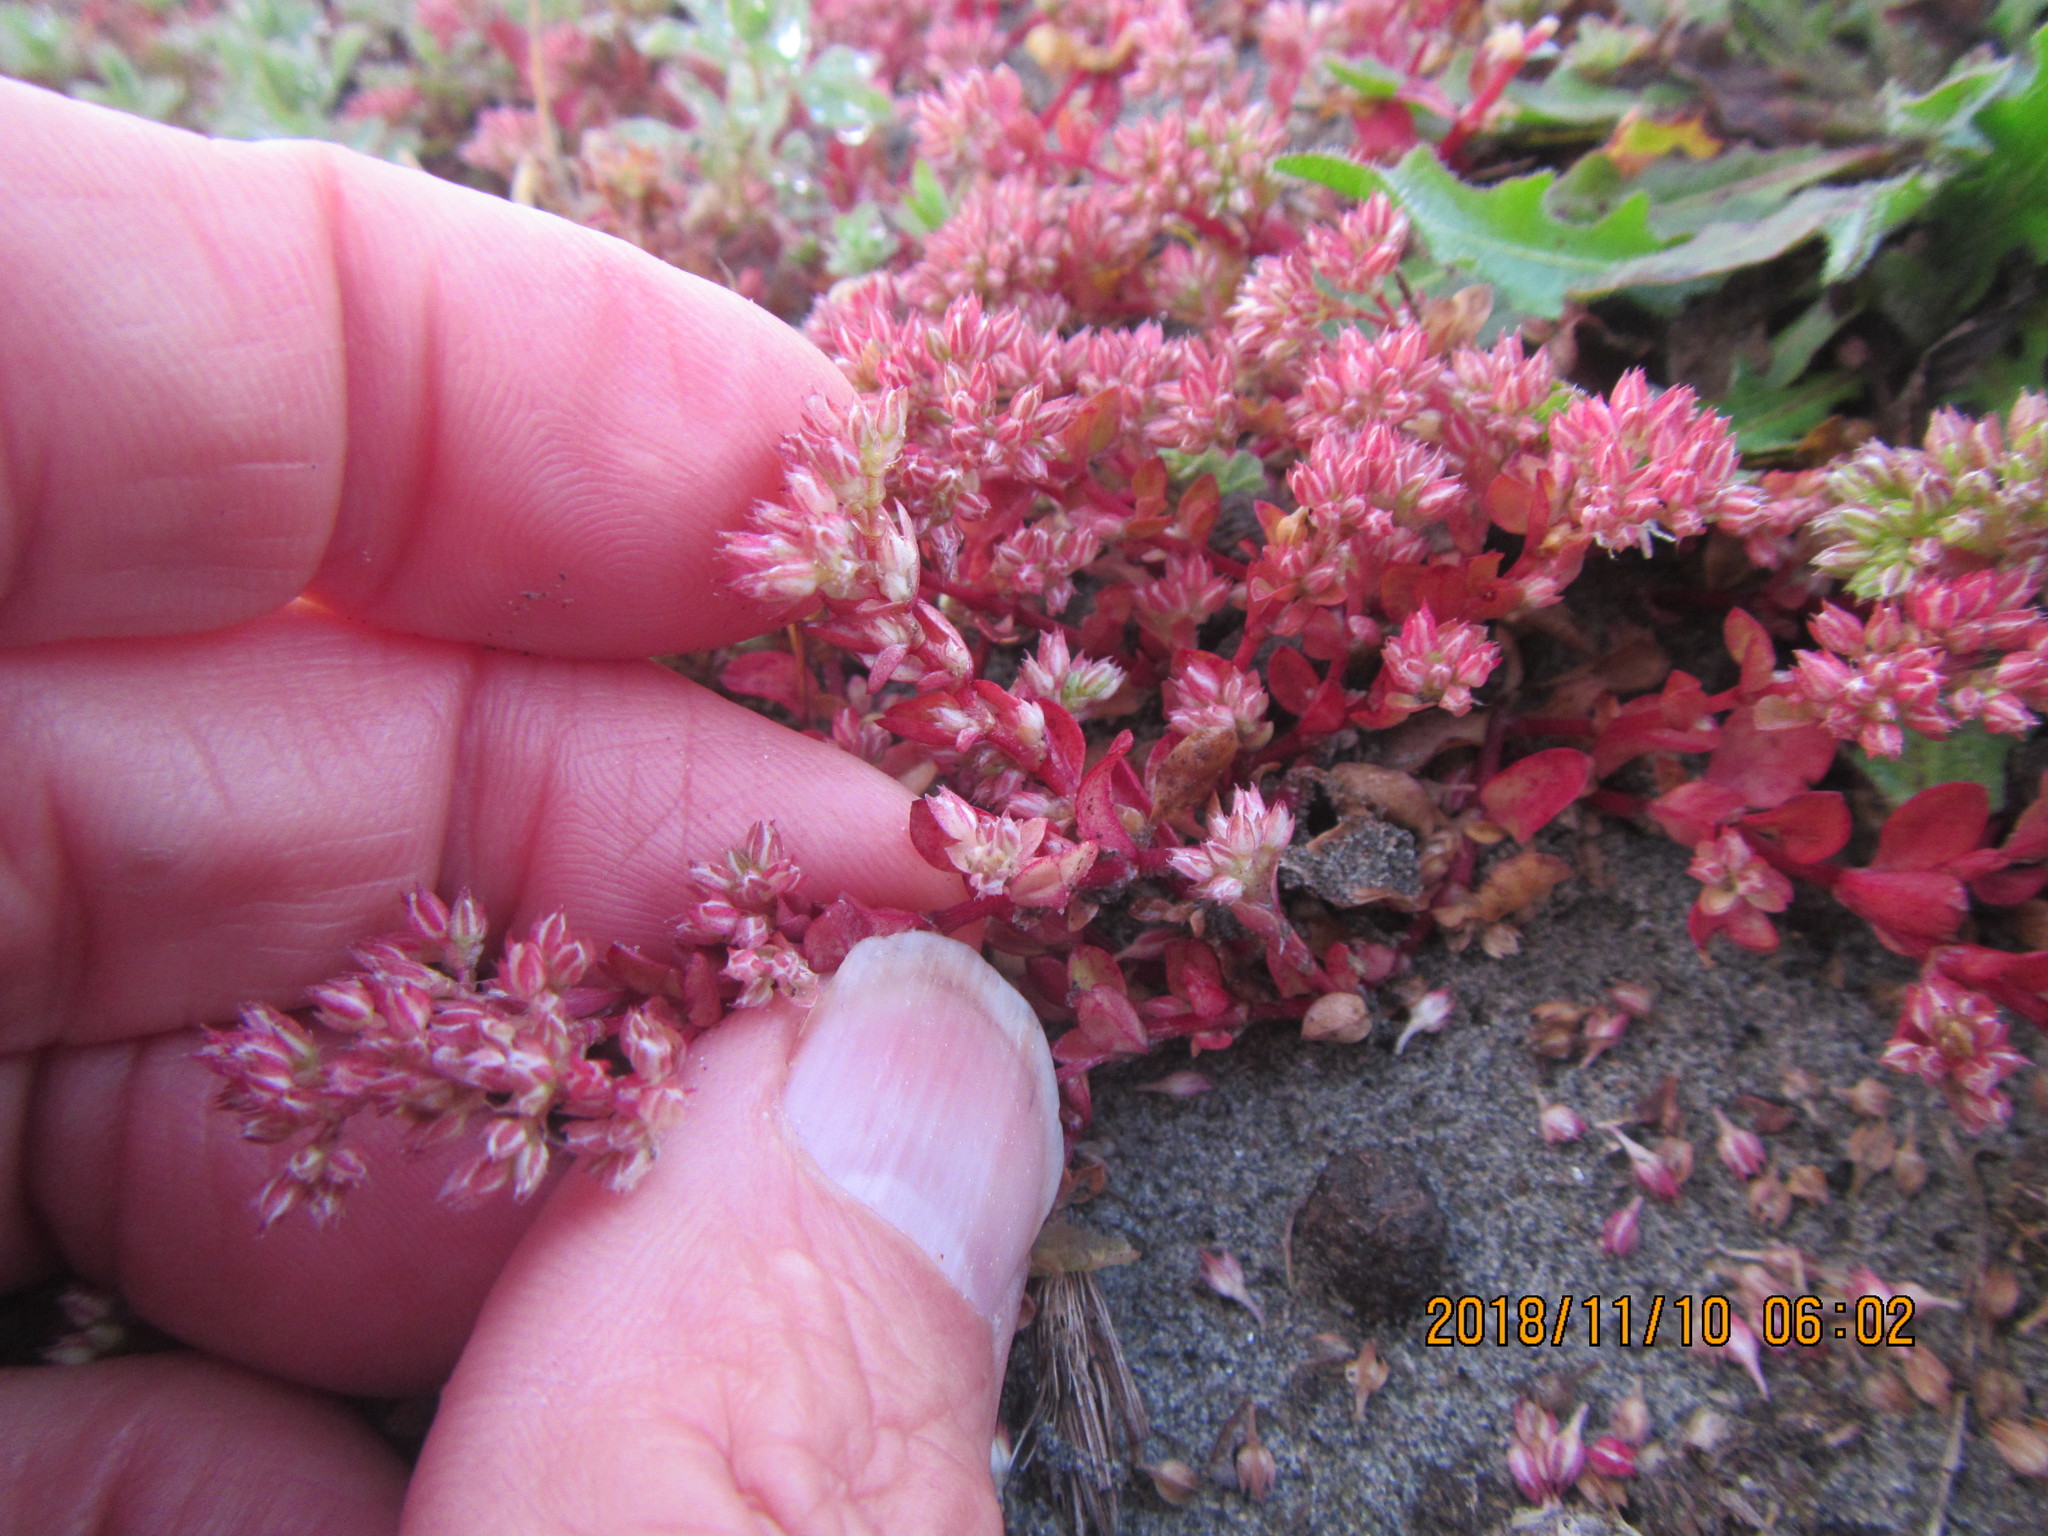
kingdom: Plantae
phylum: Tracheophyta
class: Magnoliopsida
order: Caryophyllales
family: Caryophyllaceae
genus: Polycarpon
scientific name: Polycarpon tetraphyllum
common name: Four-leaved all-seed
